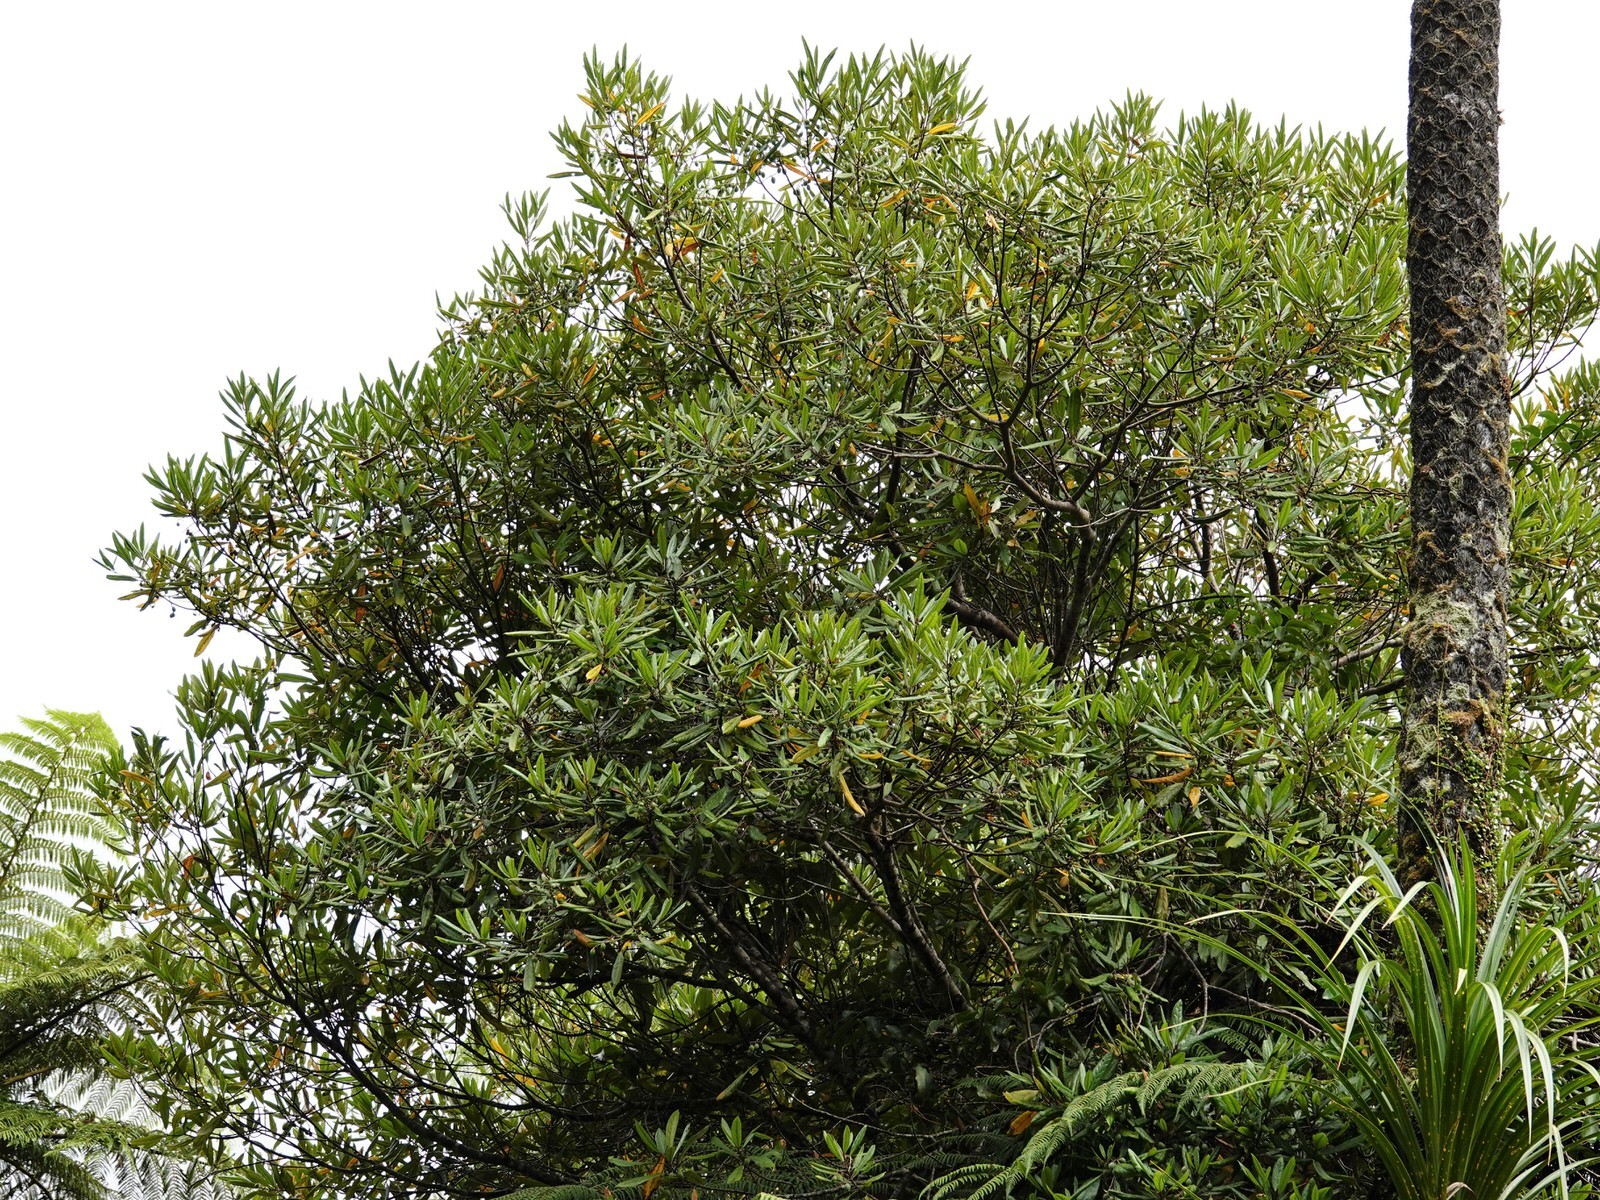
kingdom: Plantae
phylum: Tracheophyta
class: Magnoliopsida
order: Oxalidales
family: Elaeocarpaceae
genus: Elaeocarpus
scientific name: Elaeocarpus dentatus
